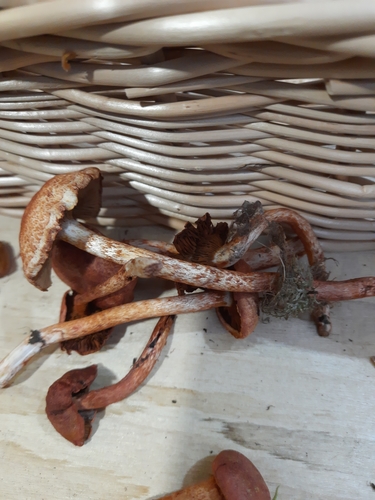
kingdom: Fungi
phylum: Basidiomycota
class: Agaricomycetes
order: Agaricales
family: Cortinariaceae
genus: Cortinarius
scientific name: Cortinarius bolaris
